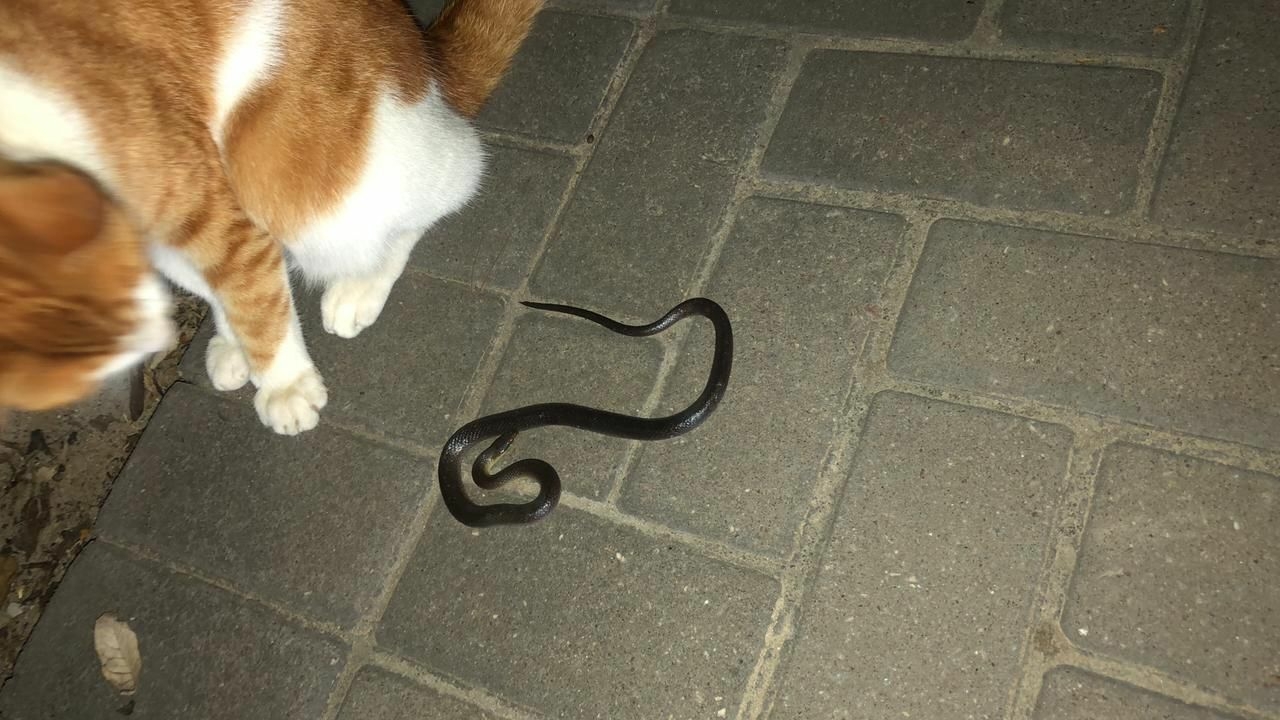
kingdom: Animalia
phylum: Chordata
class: Squamata
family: Lamprophiidae
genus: Lycodonomorphus
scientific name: Lycodonomorphus rufulus
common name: Brown water snake
